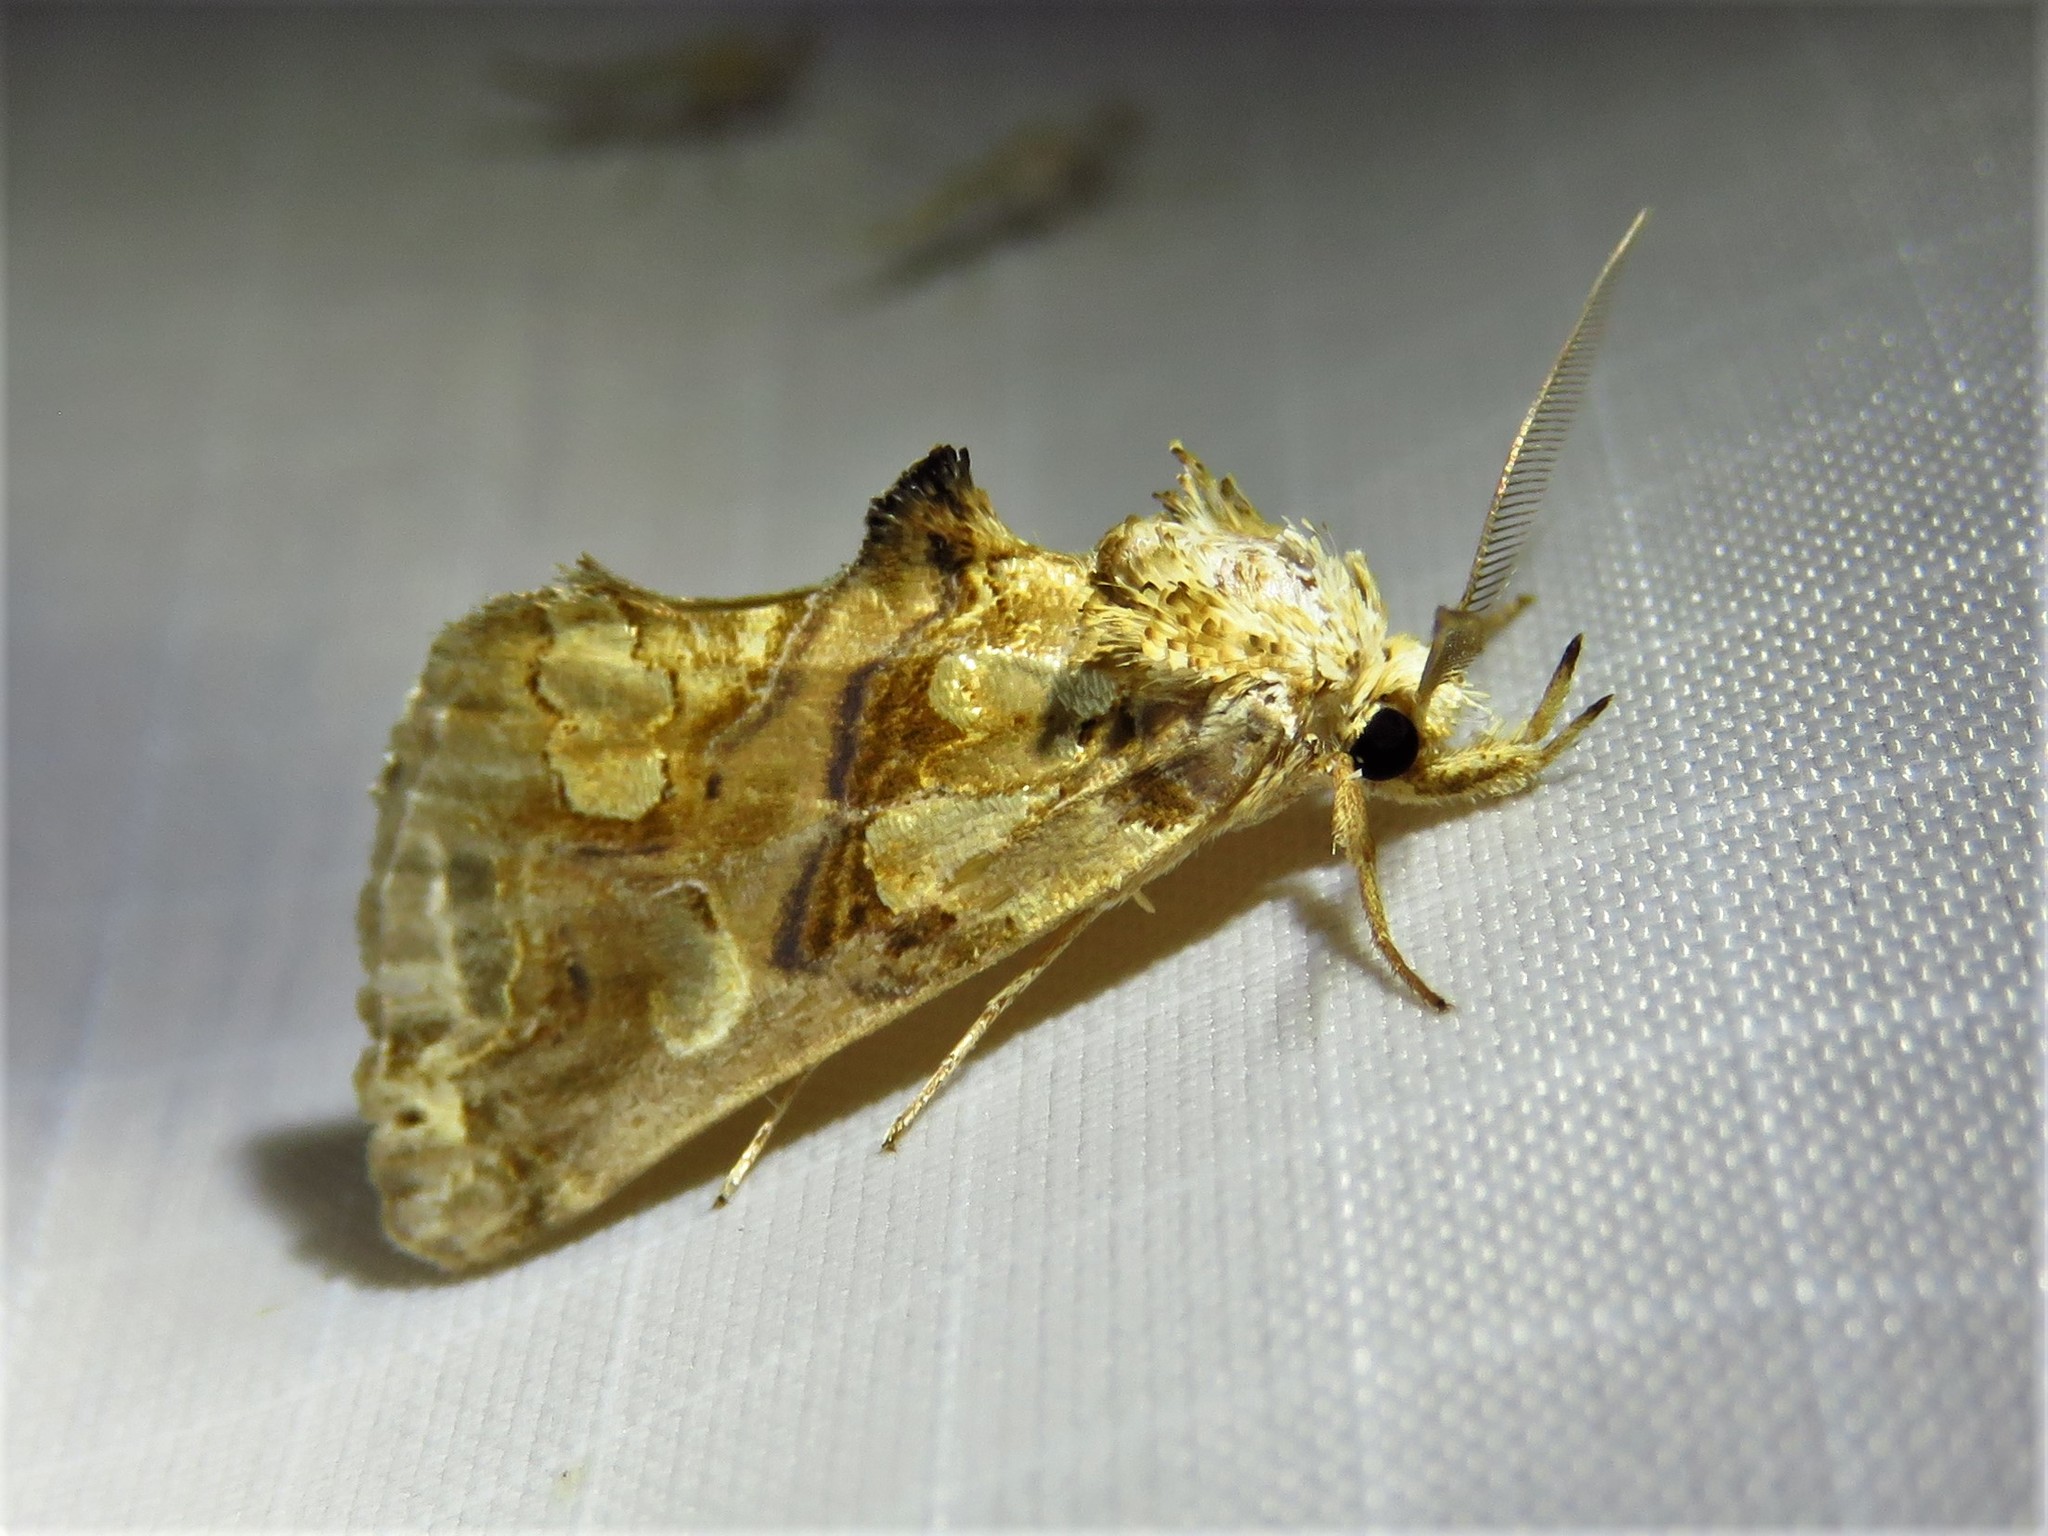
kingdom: Animalia
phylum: Arthropoda
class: Insecta
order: Lepidoptera
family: Erebidae
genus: Plusiodonta
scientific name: Plusiodonta compressipalpis
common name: Moonseed moth
